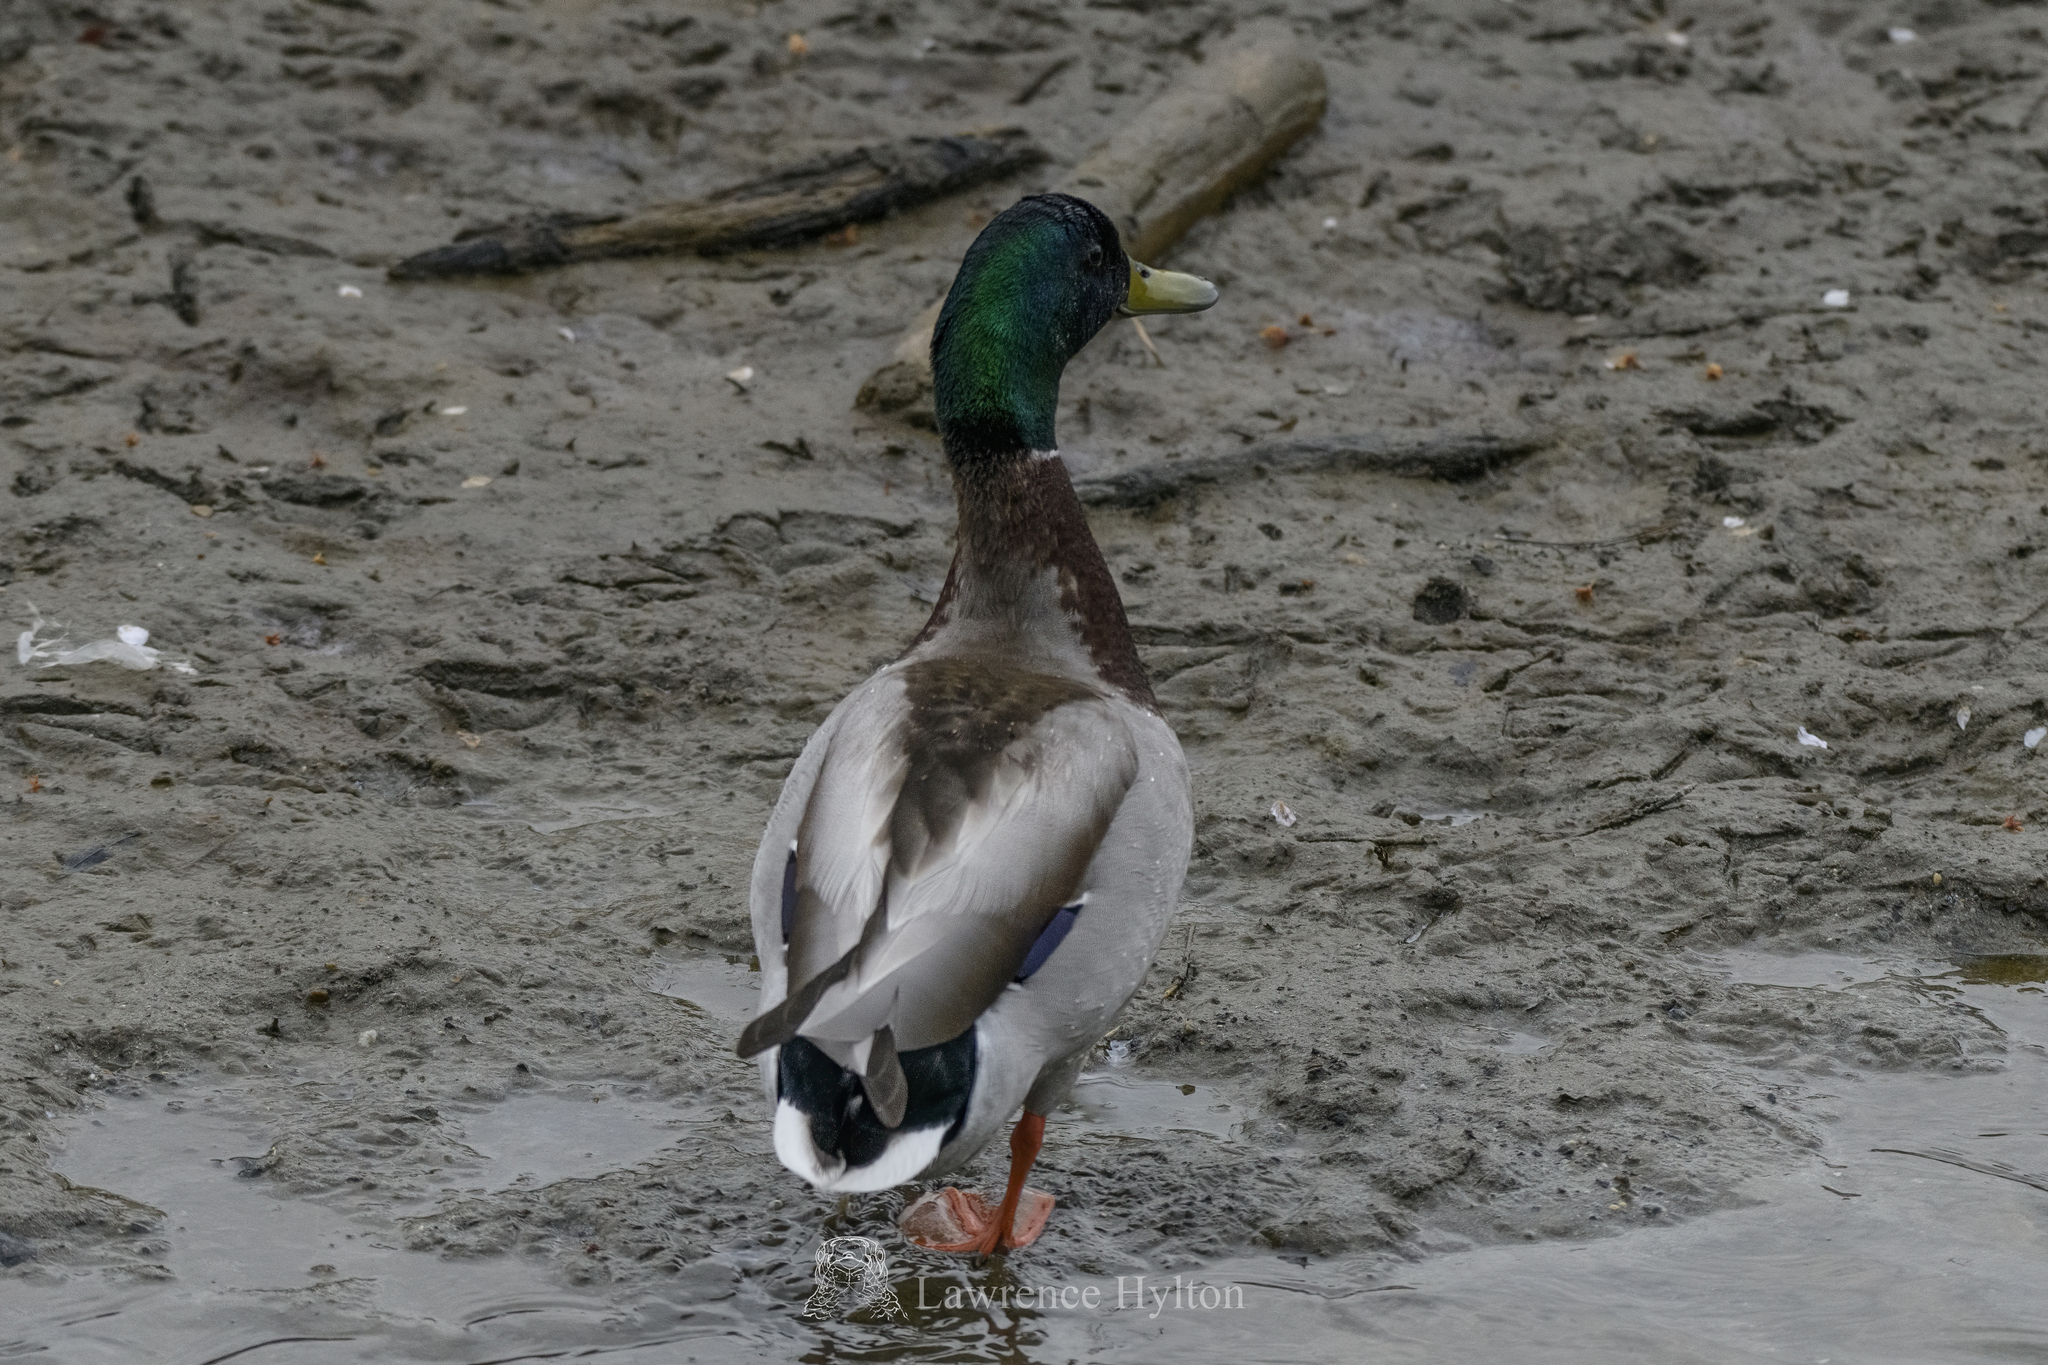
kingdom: Animalia
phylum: Chordata
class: Aves
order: Anseriformes
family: Anatidae
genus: Anas
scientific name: Anas platyrhynchos
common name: Mallard
